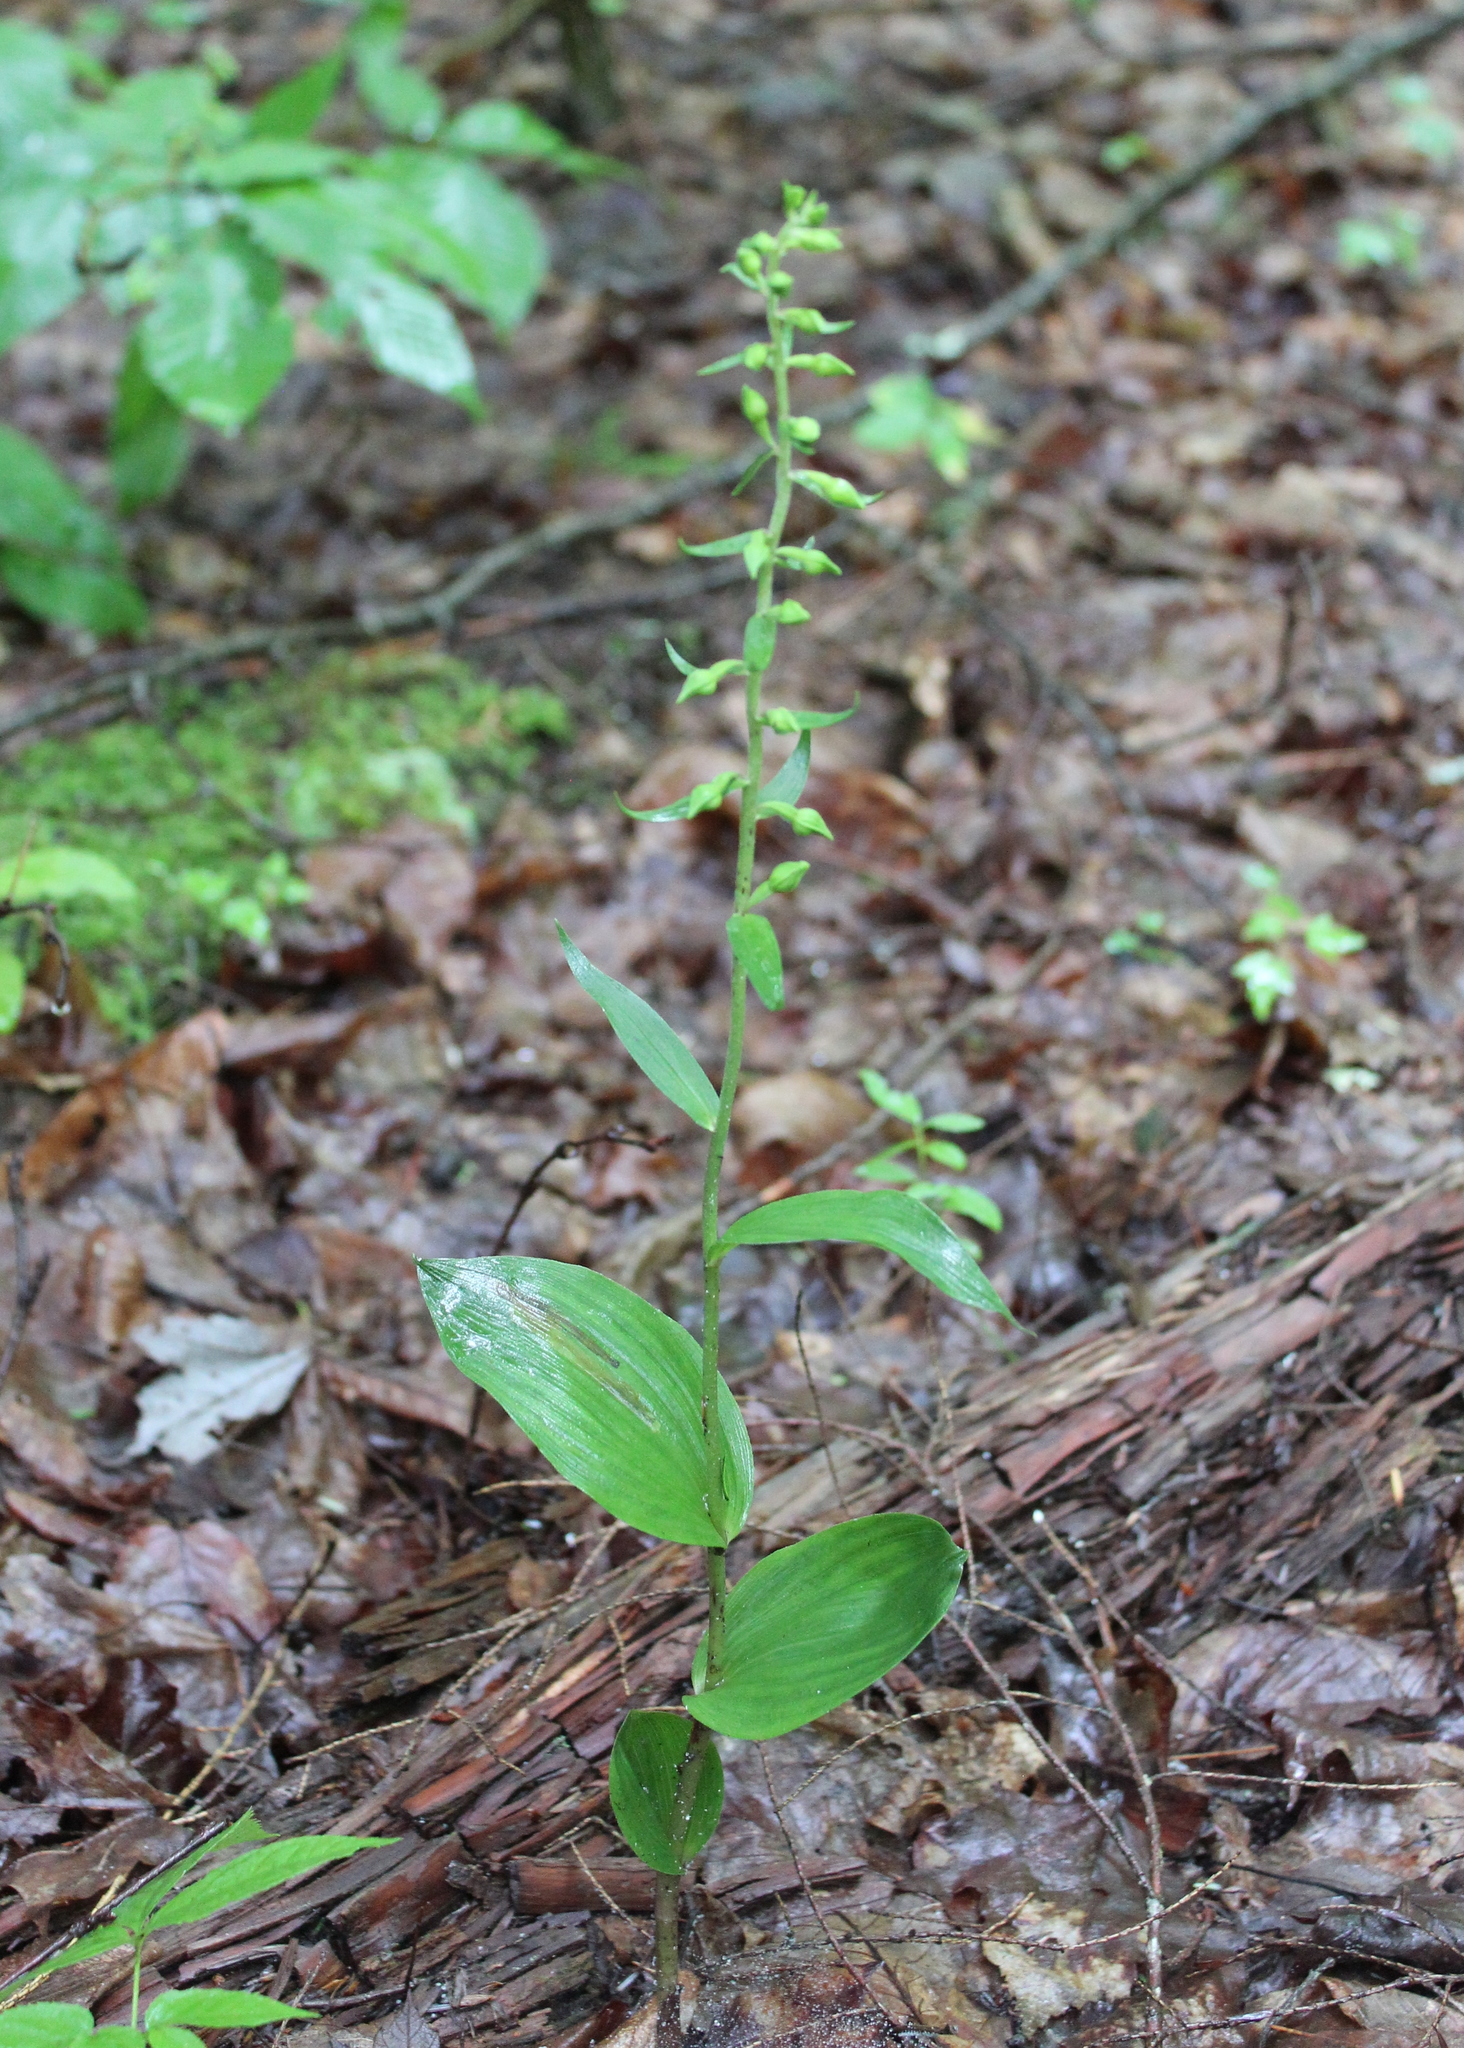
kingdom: Plantae
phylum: Tracheophyta
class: Liliopsida
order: Asparagales
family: Orchidaceae
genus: Epipactis
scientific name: Epipactis helleborine
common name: Broad-leaved helleborine
